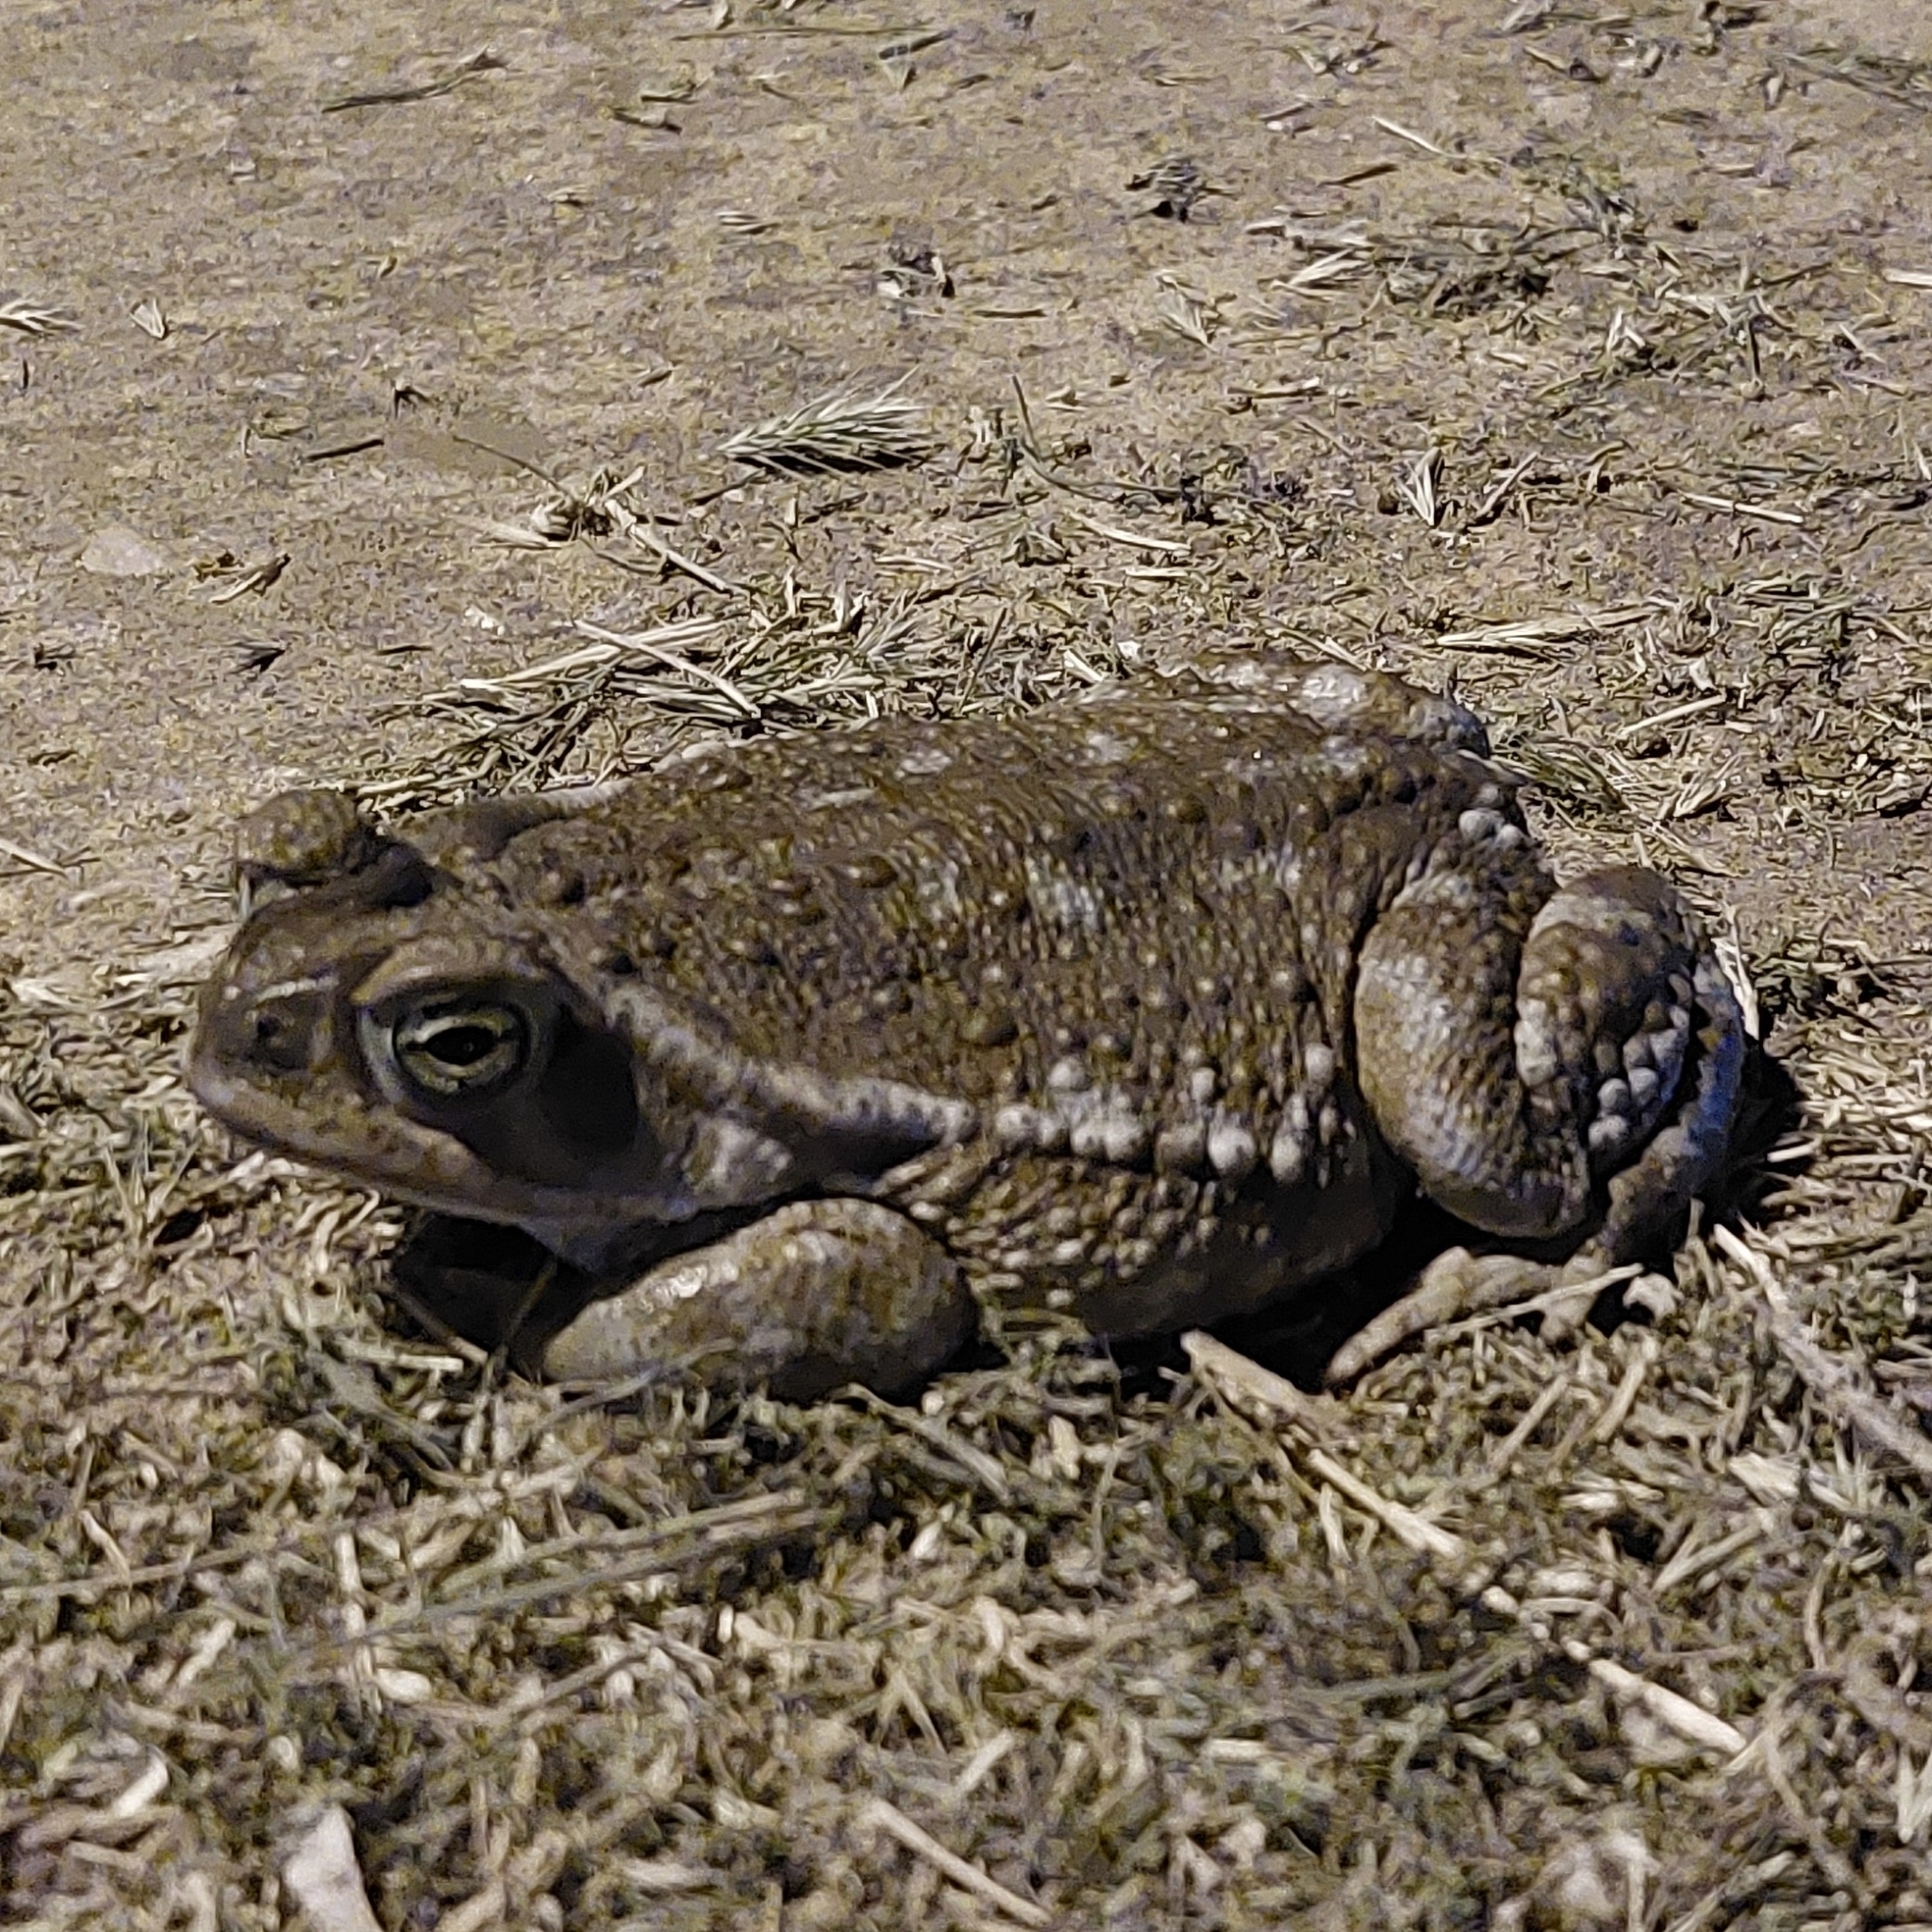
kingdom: Animalia
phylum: Chordata
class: Amphibia
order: Anura
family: Bufonidae
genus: Rhinella
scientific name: Rhinella arenarum
